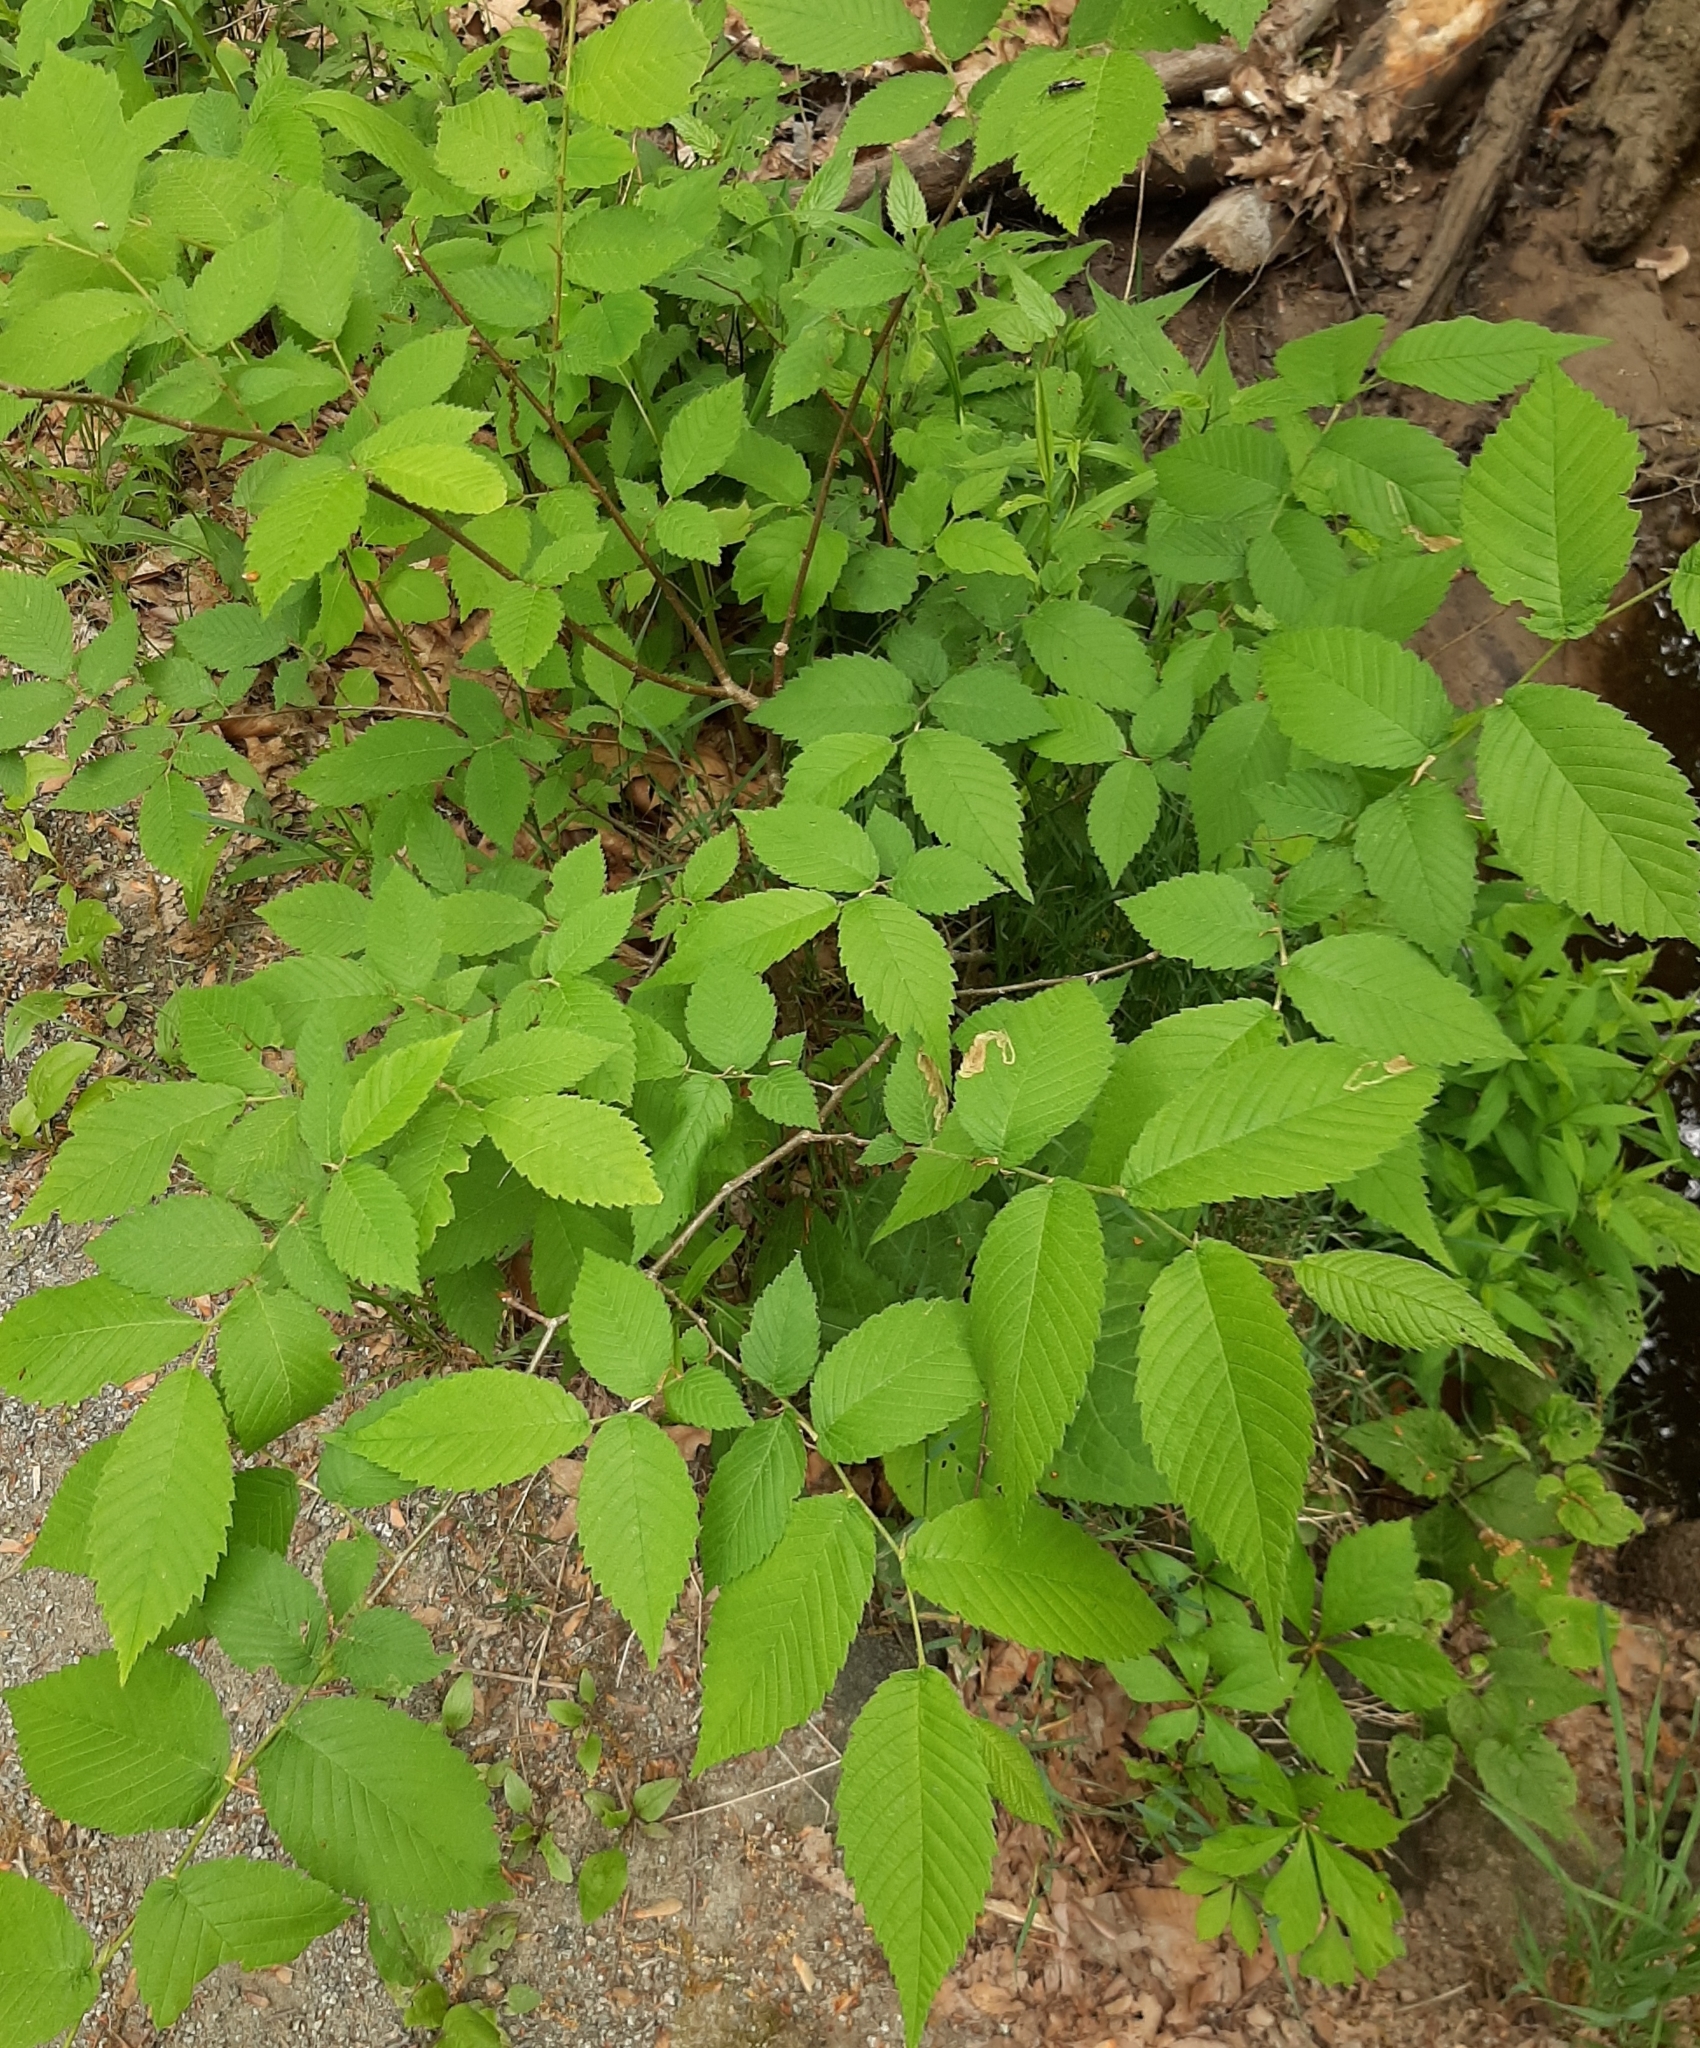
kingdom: Animalia
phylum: Arthropoda
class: Insecta
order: Diptera
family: Agromyzidae
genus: Agromyza
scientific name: Agromyza aristata
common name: Elm agromyzid leafminer
